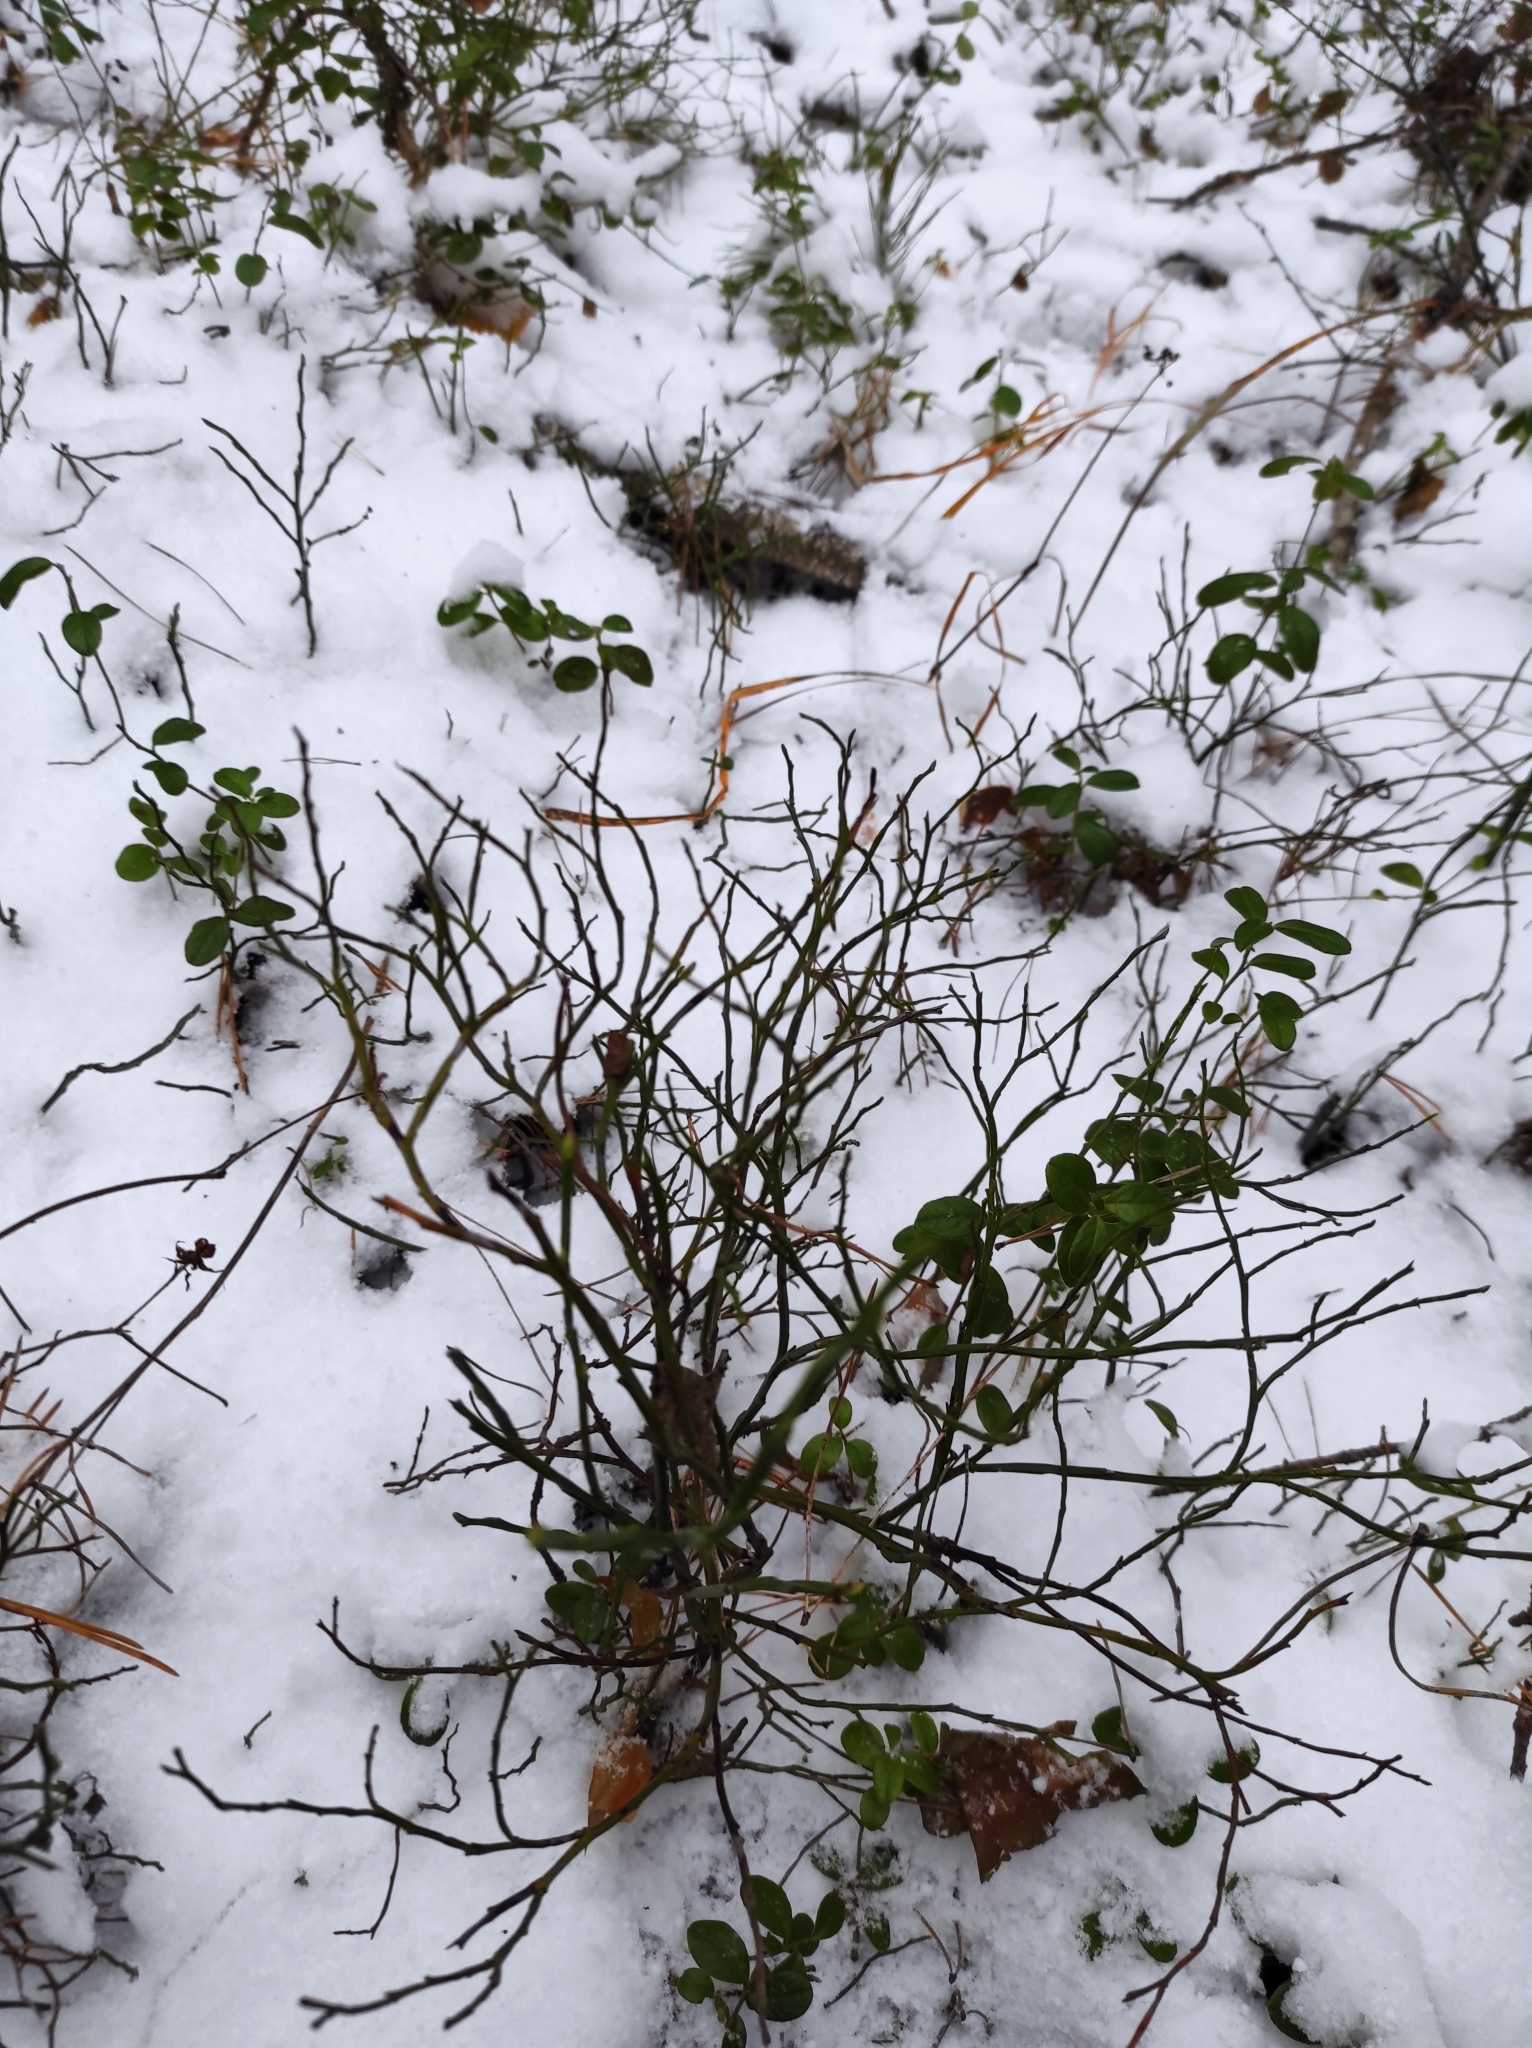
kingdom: Plantae
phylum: Tracheophyta
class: Magnoliopsida
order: Ericales
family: Ericaceae
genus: Vaccinium
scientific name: Vaccinium myrtillus
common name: Bilberry
